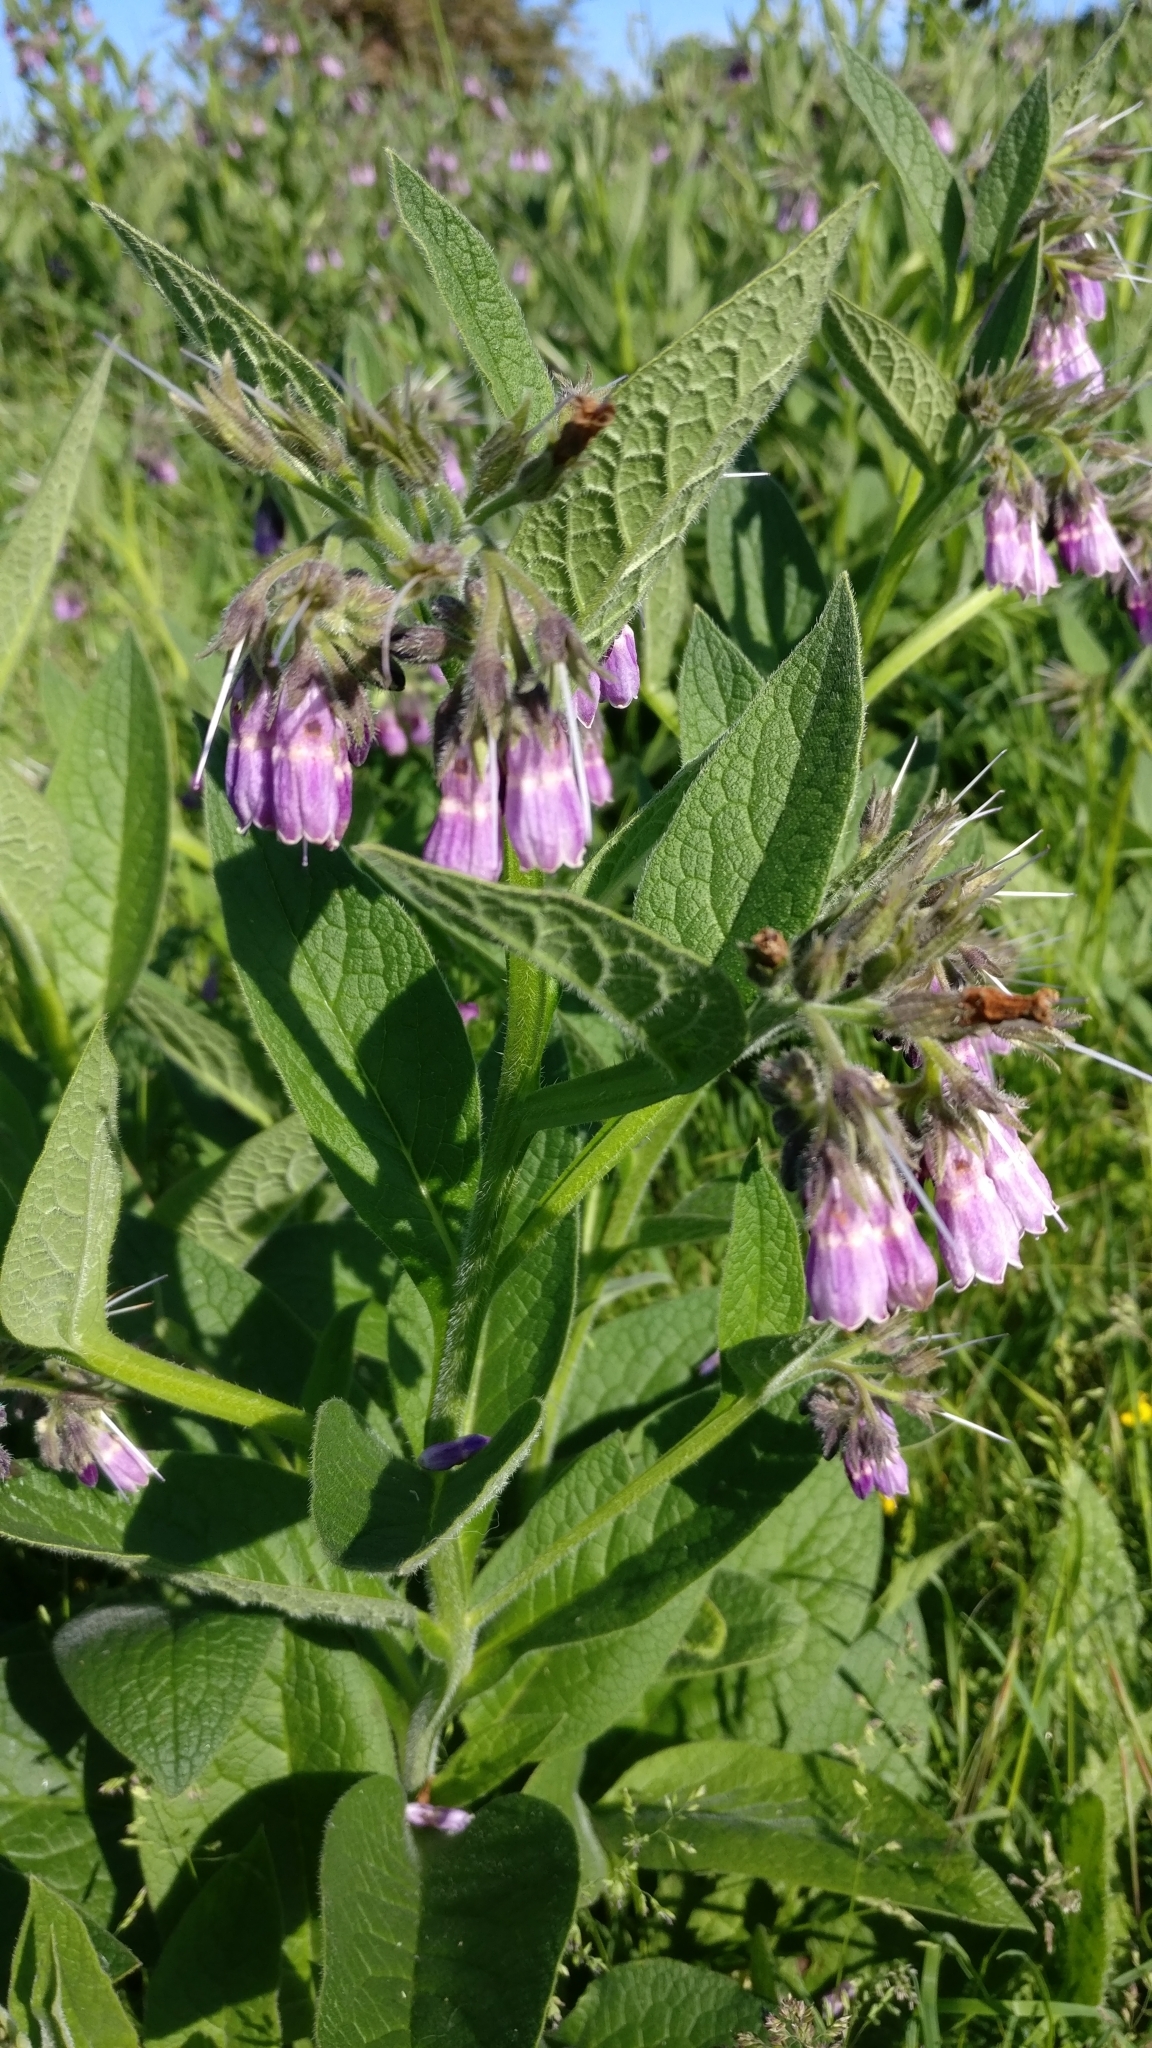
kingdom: Plantae
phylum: Tracheophyta
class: Magnoliopsida
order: Boraginales
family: Boraginaceae
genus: Symphytum
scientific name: Symphytum uplandicum
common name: Russian comfrey
